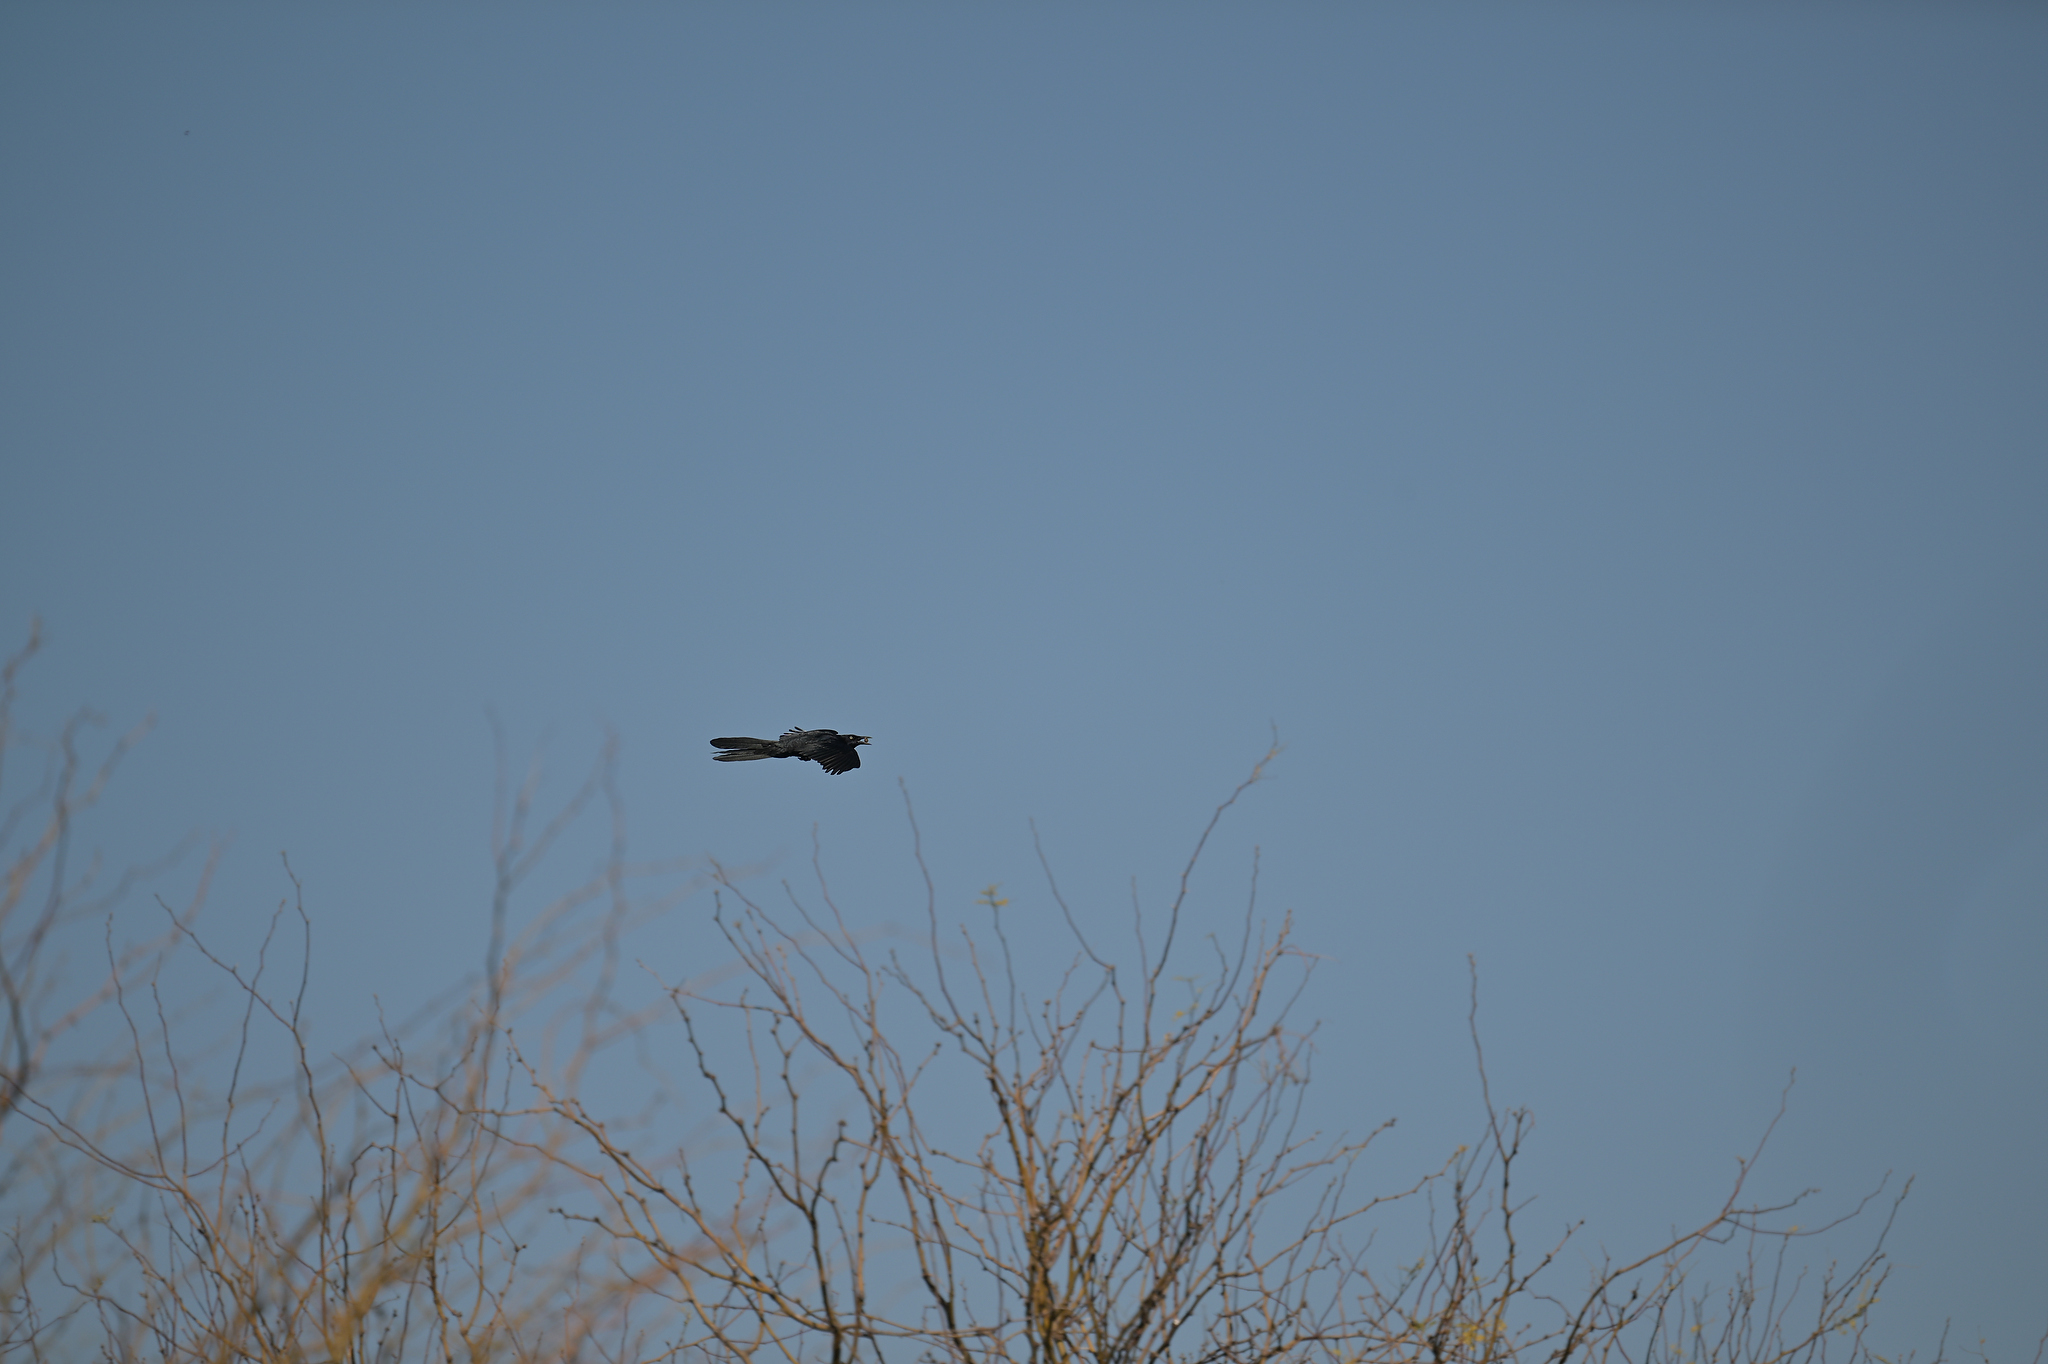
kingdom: Animalia
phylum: Chordata
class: Aves
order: Passeriformes
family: Icteridae
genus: Quiscalus
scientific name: Quiscalus mexicanus
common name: Great-tailed grackle
